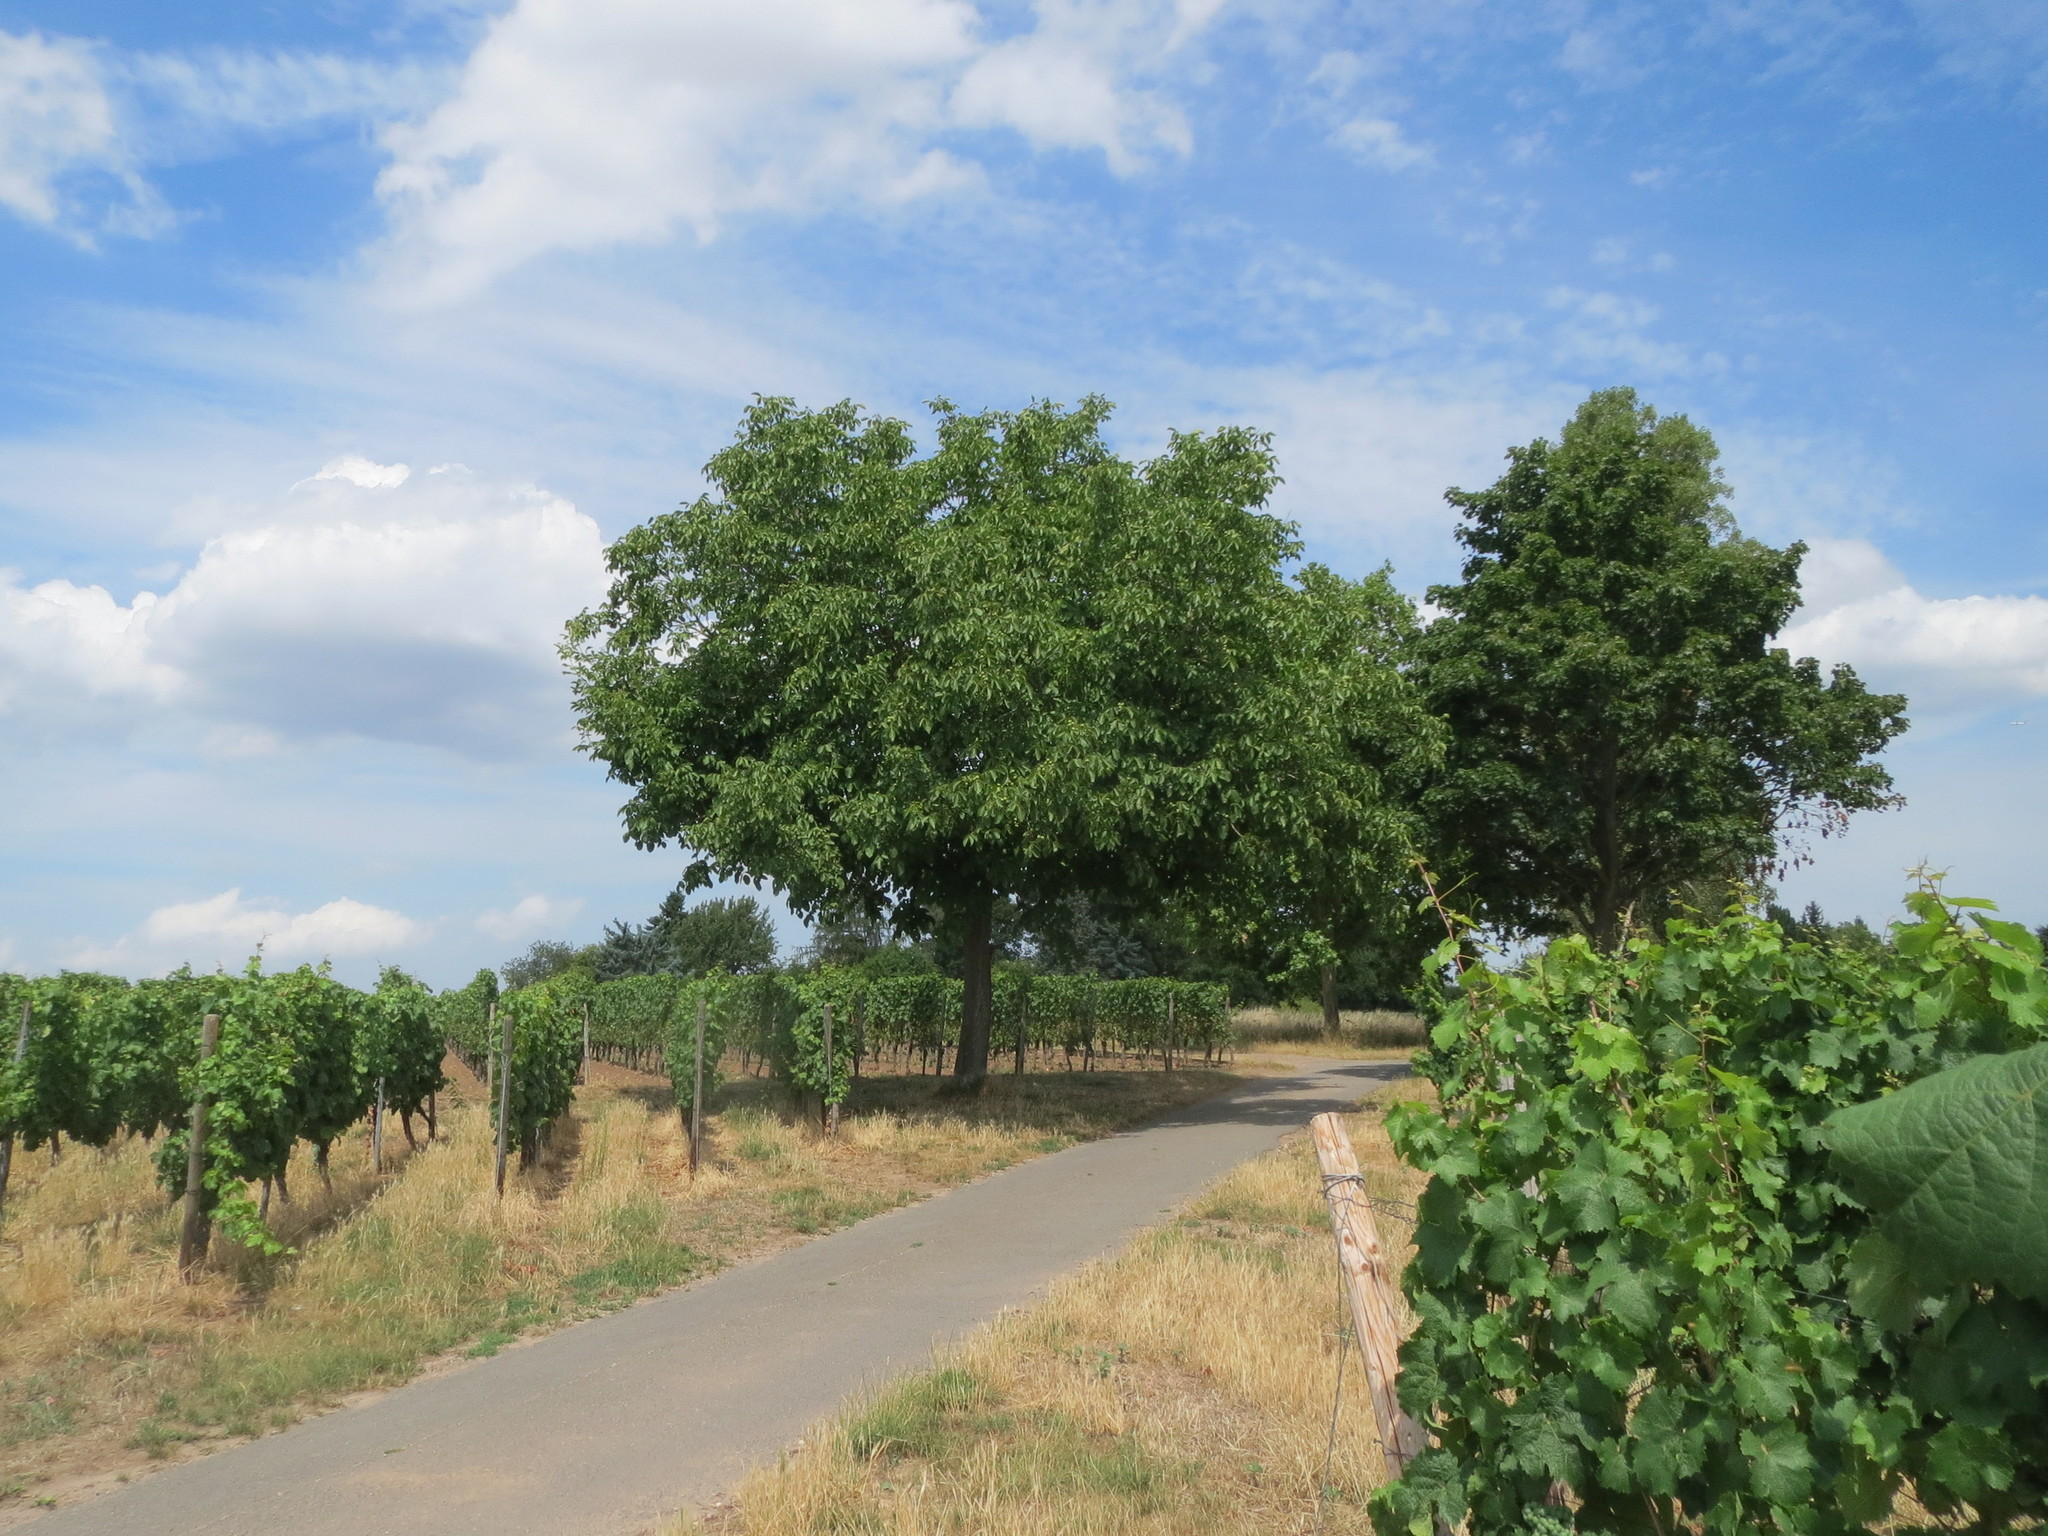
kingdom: Plantae
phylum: Tracheophyta
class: Magnoliopsida
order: Fagales
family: Juglandaceae
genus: Juglans
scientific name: Juglans regia
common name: Walnut
